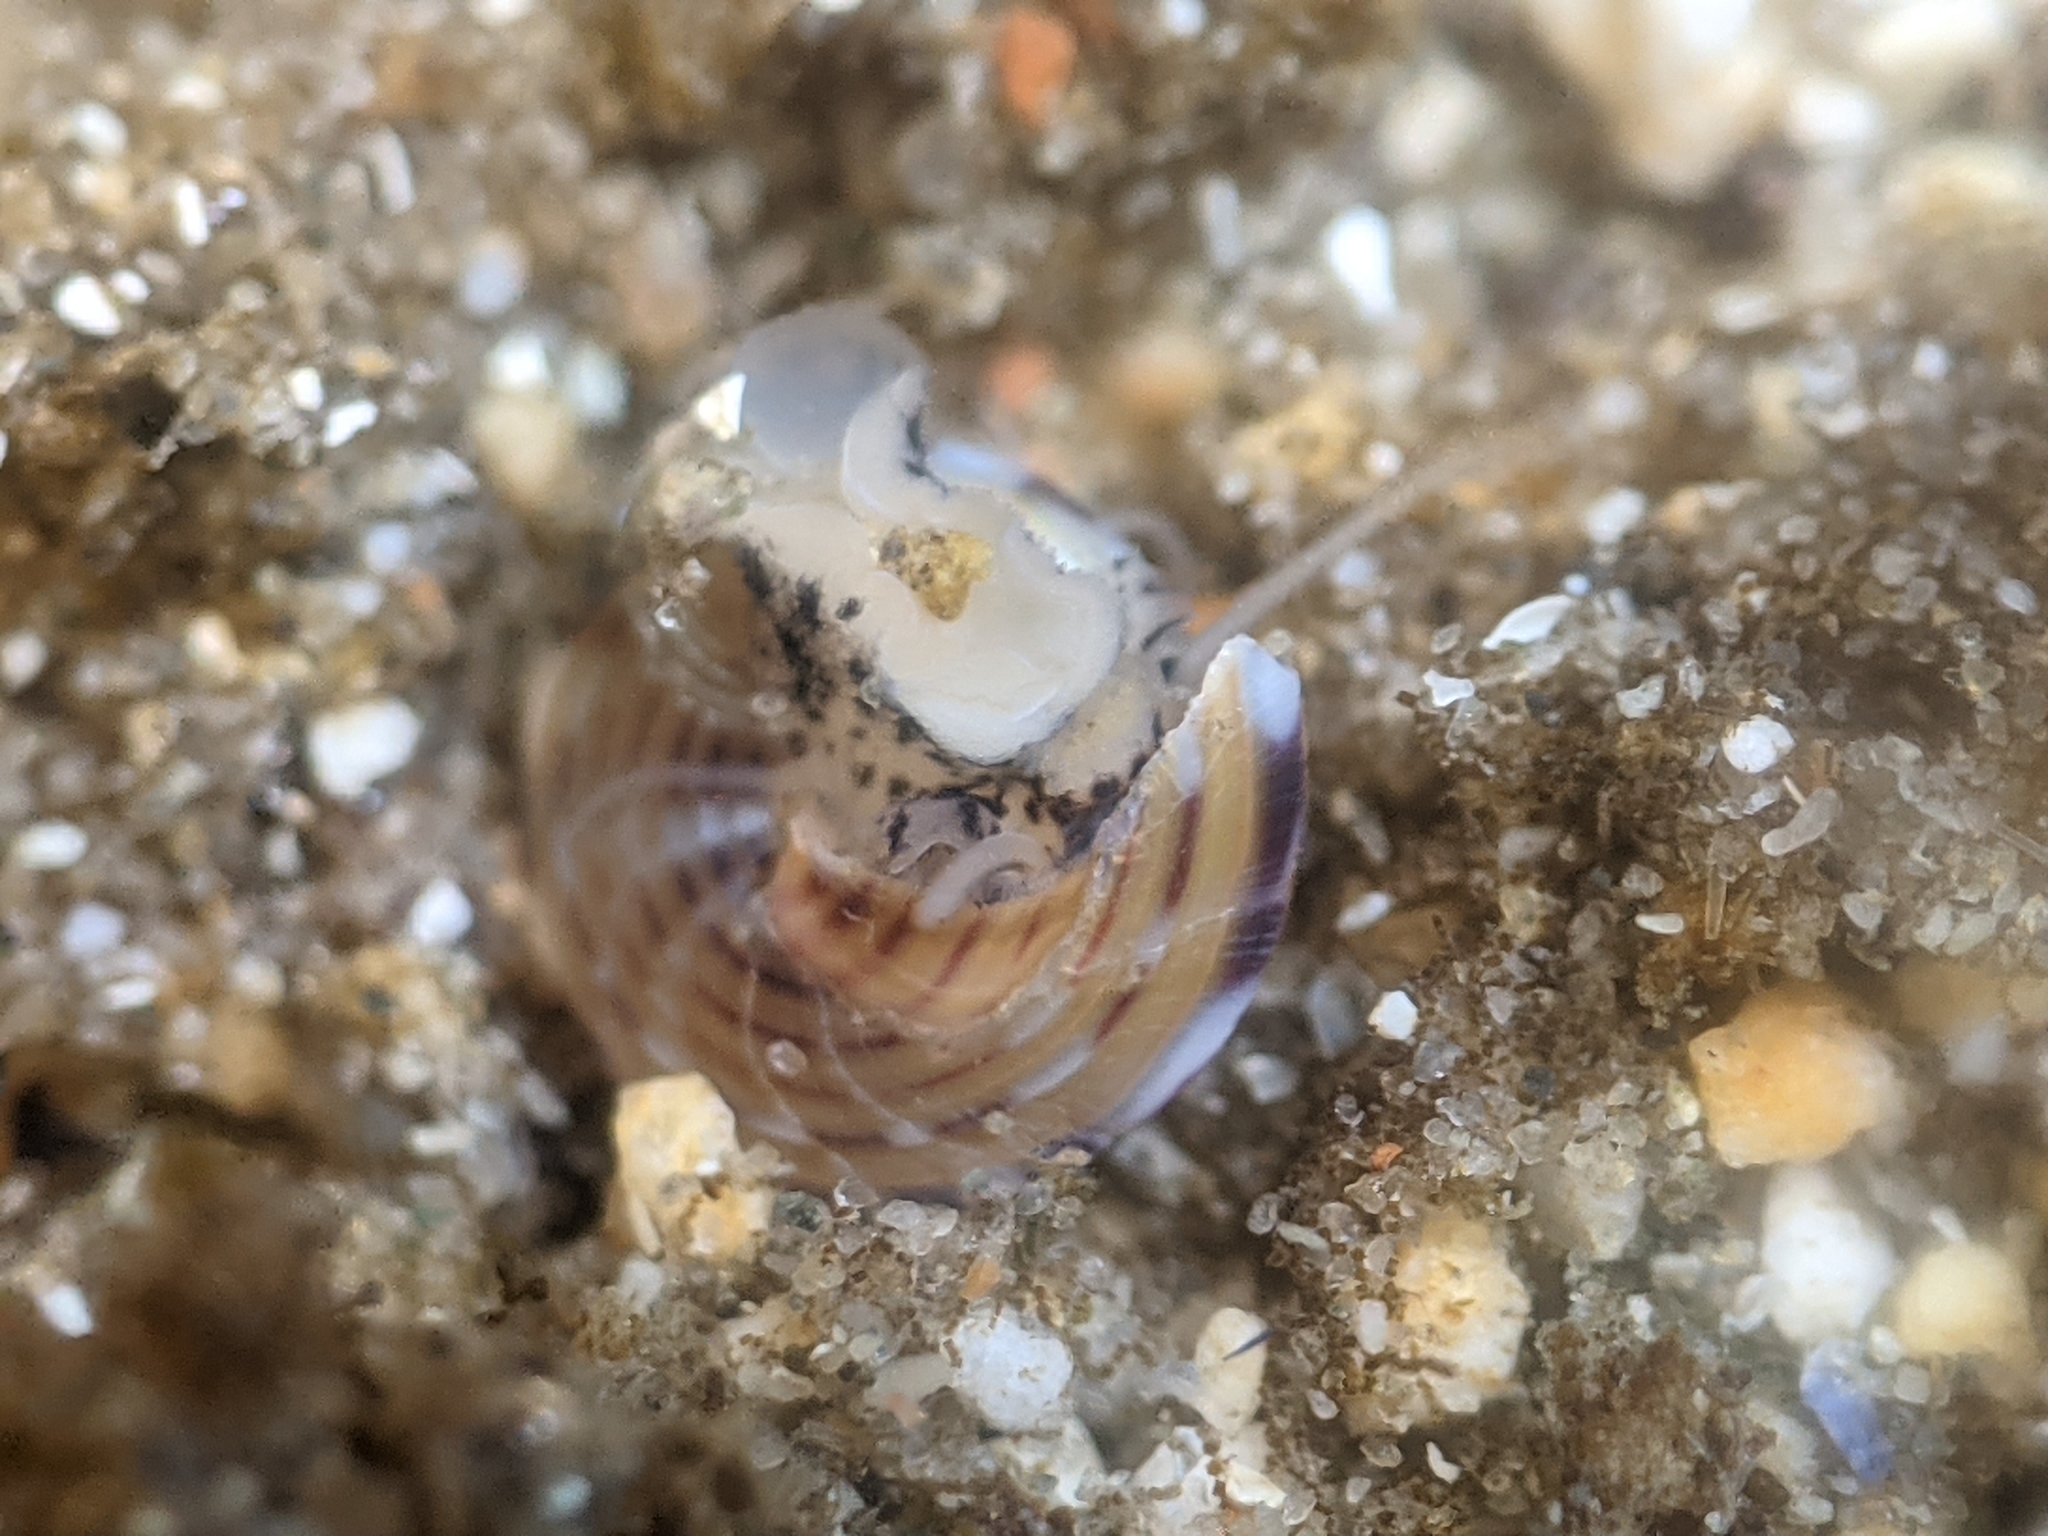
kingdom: Animalia
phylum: Mollusca
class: Gastropoda
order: Trochida
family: Calliostomatidae
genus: Calliostoma
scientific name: Calliostoma tricolor
